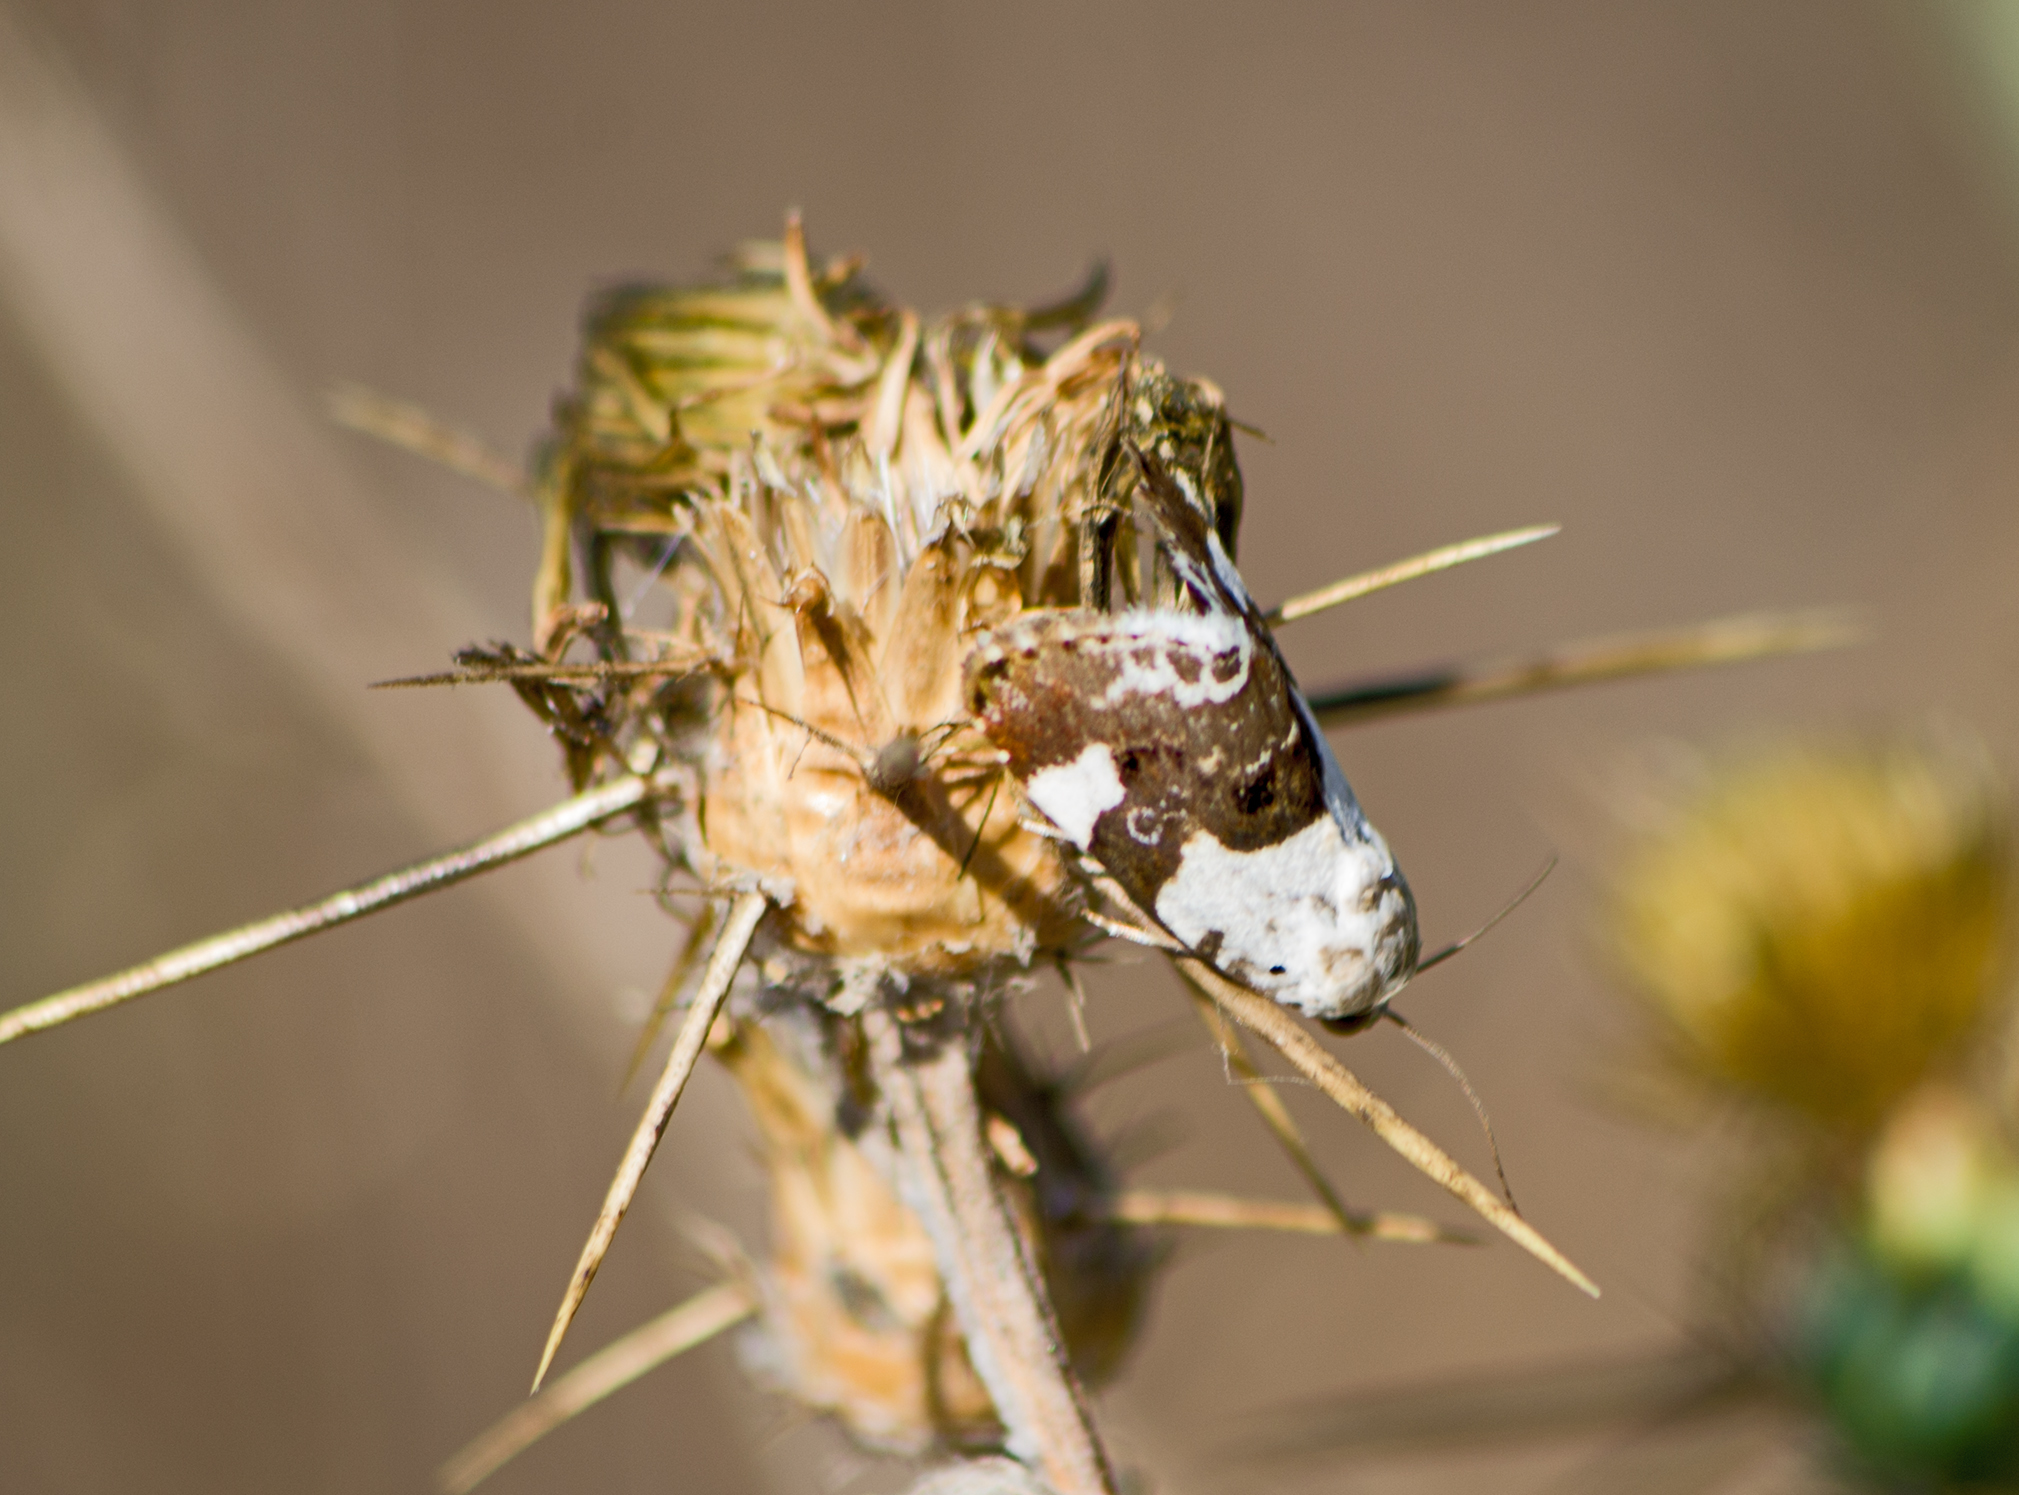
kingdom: Animalia
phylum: Arthropoda
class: Insecta
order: Lepidoptera
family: Noctuidae
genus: Acontia
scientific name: Acontia lucida
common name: Pale shoulder
